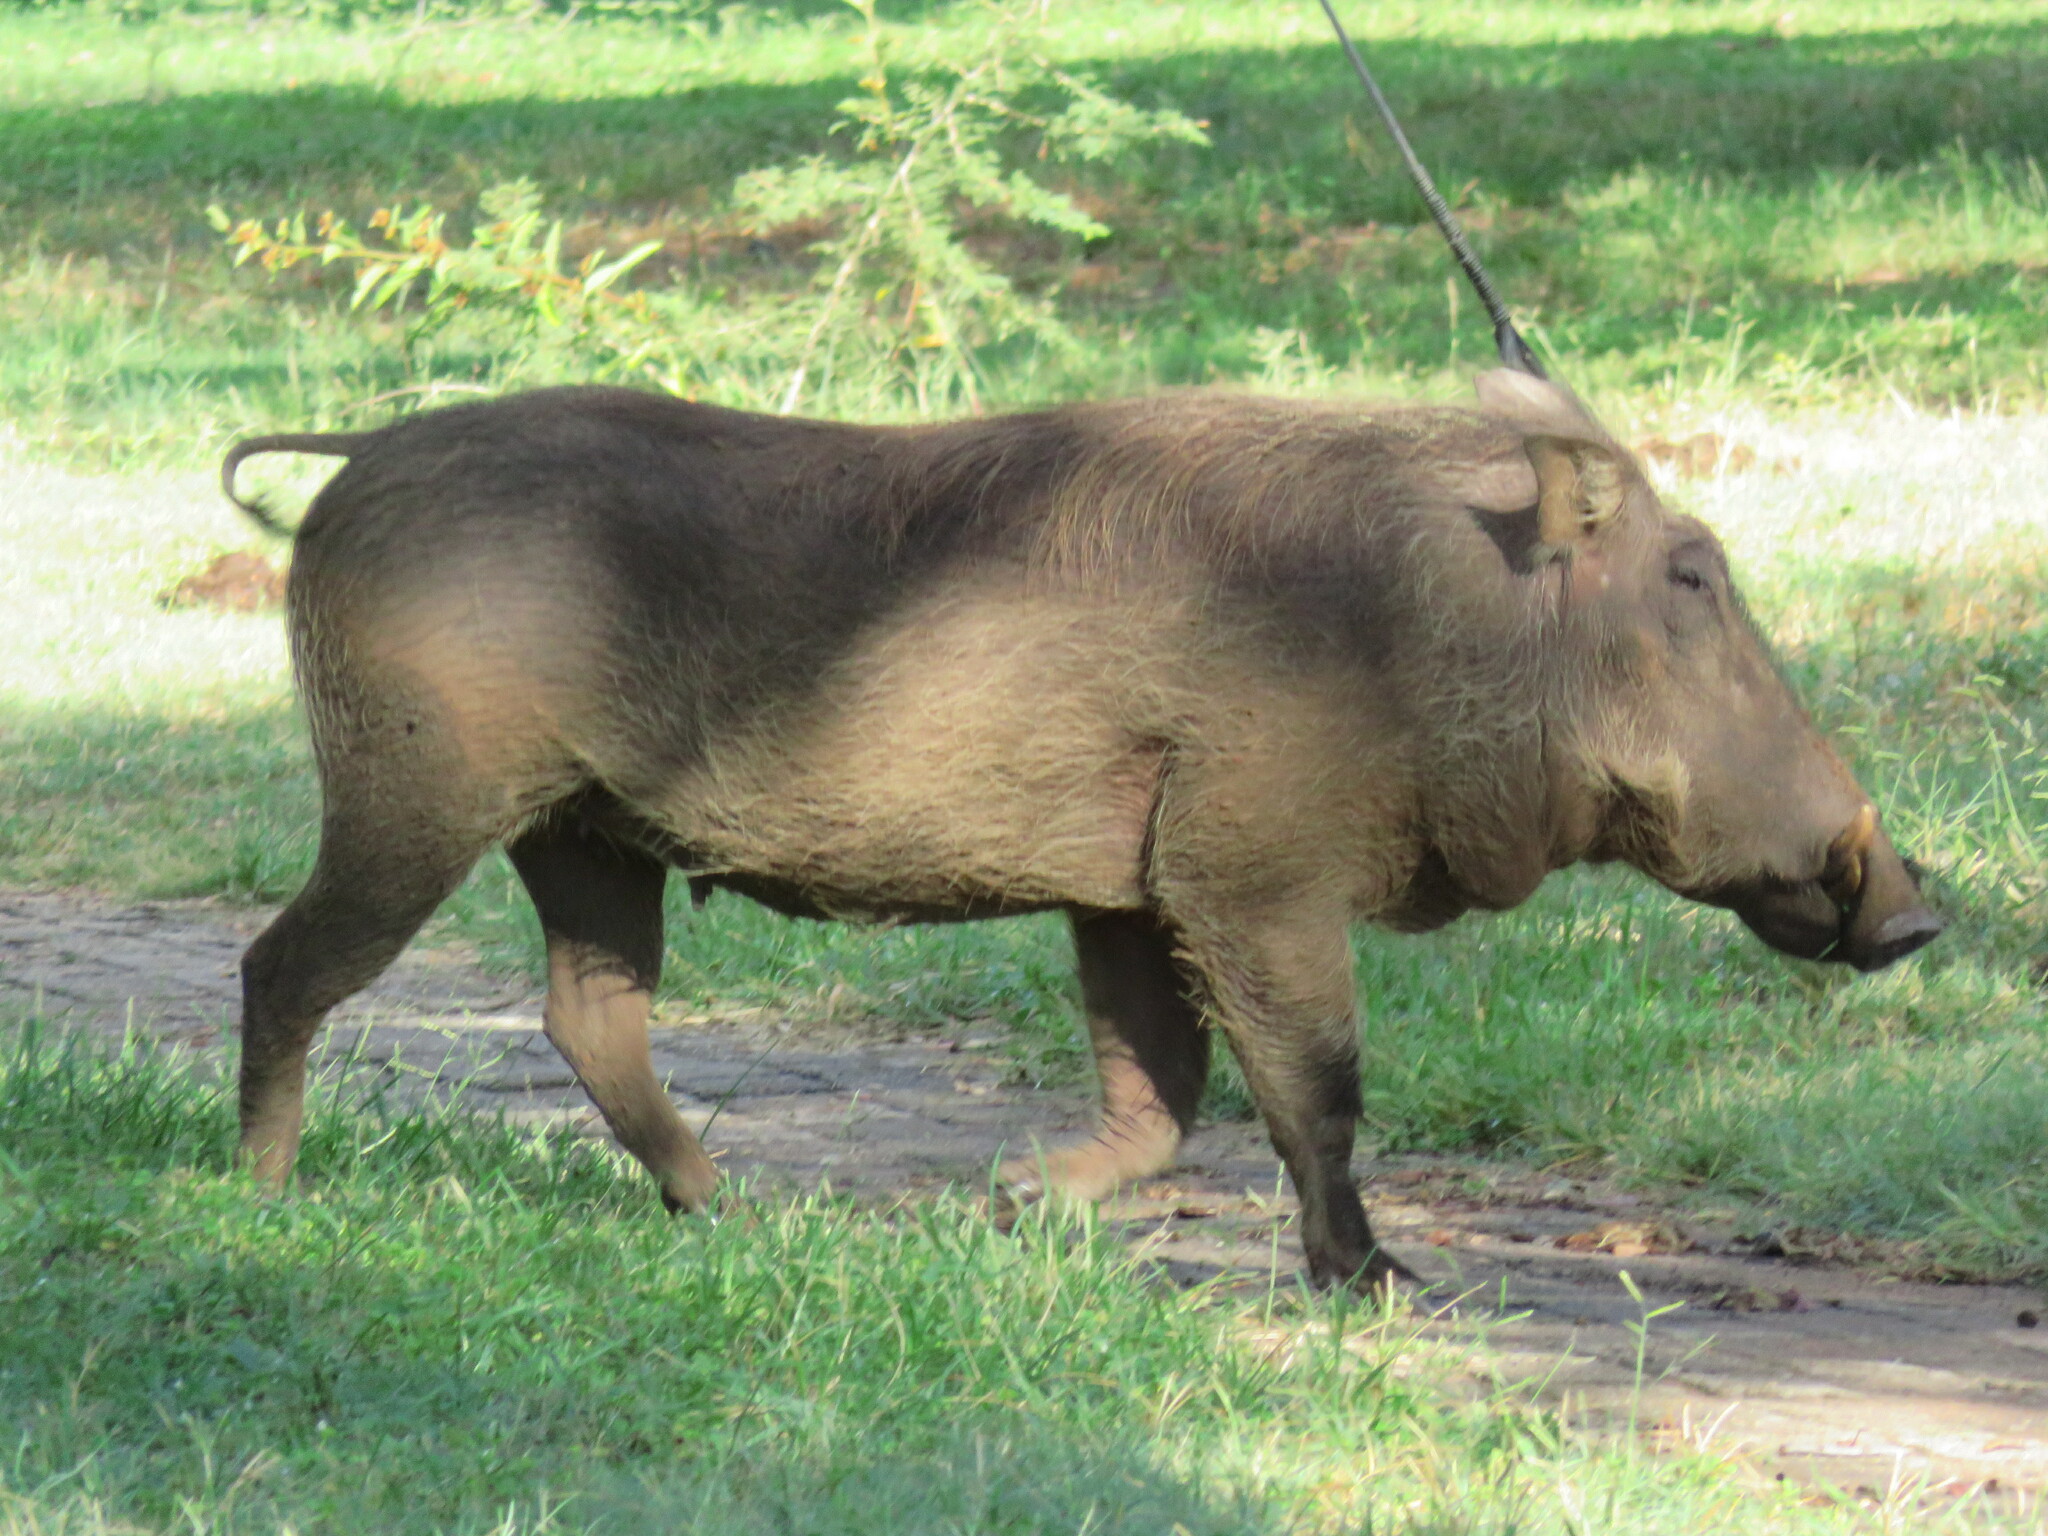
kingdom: Animalia
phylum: Chordata
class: Mammalia
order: Artiodactyla
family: Suidae
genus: Phacochoerus
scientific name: Phacochoerus africanus
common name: Common warthog
